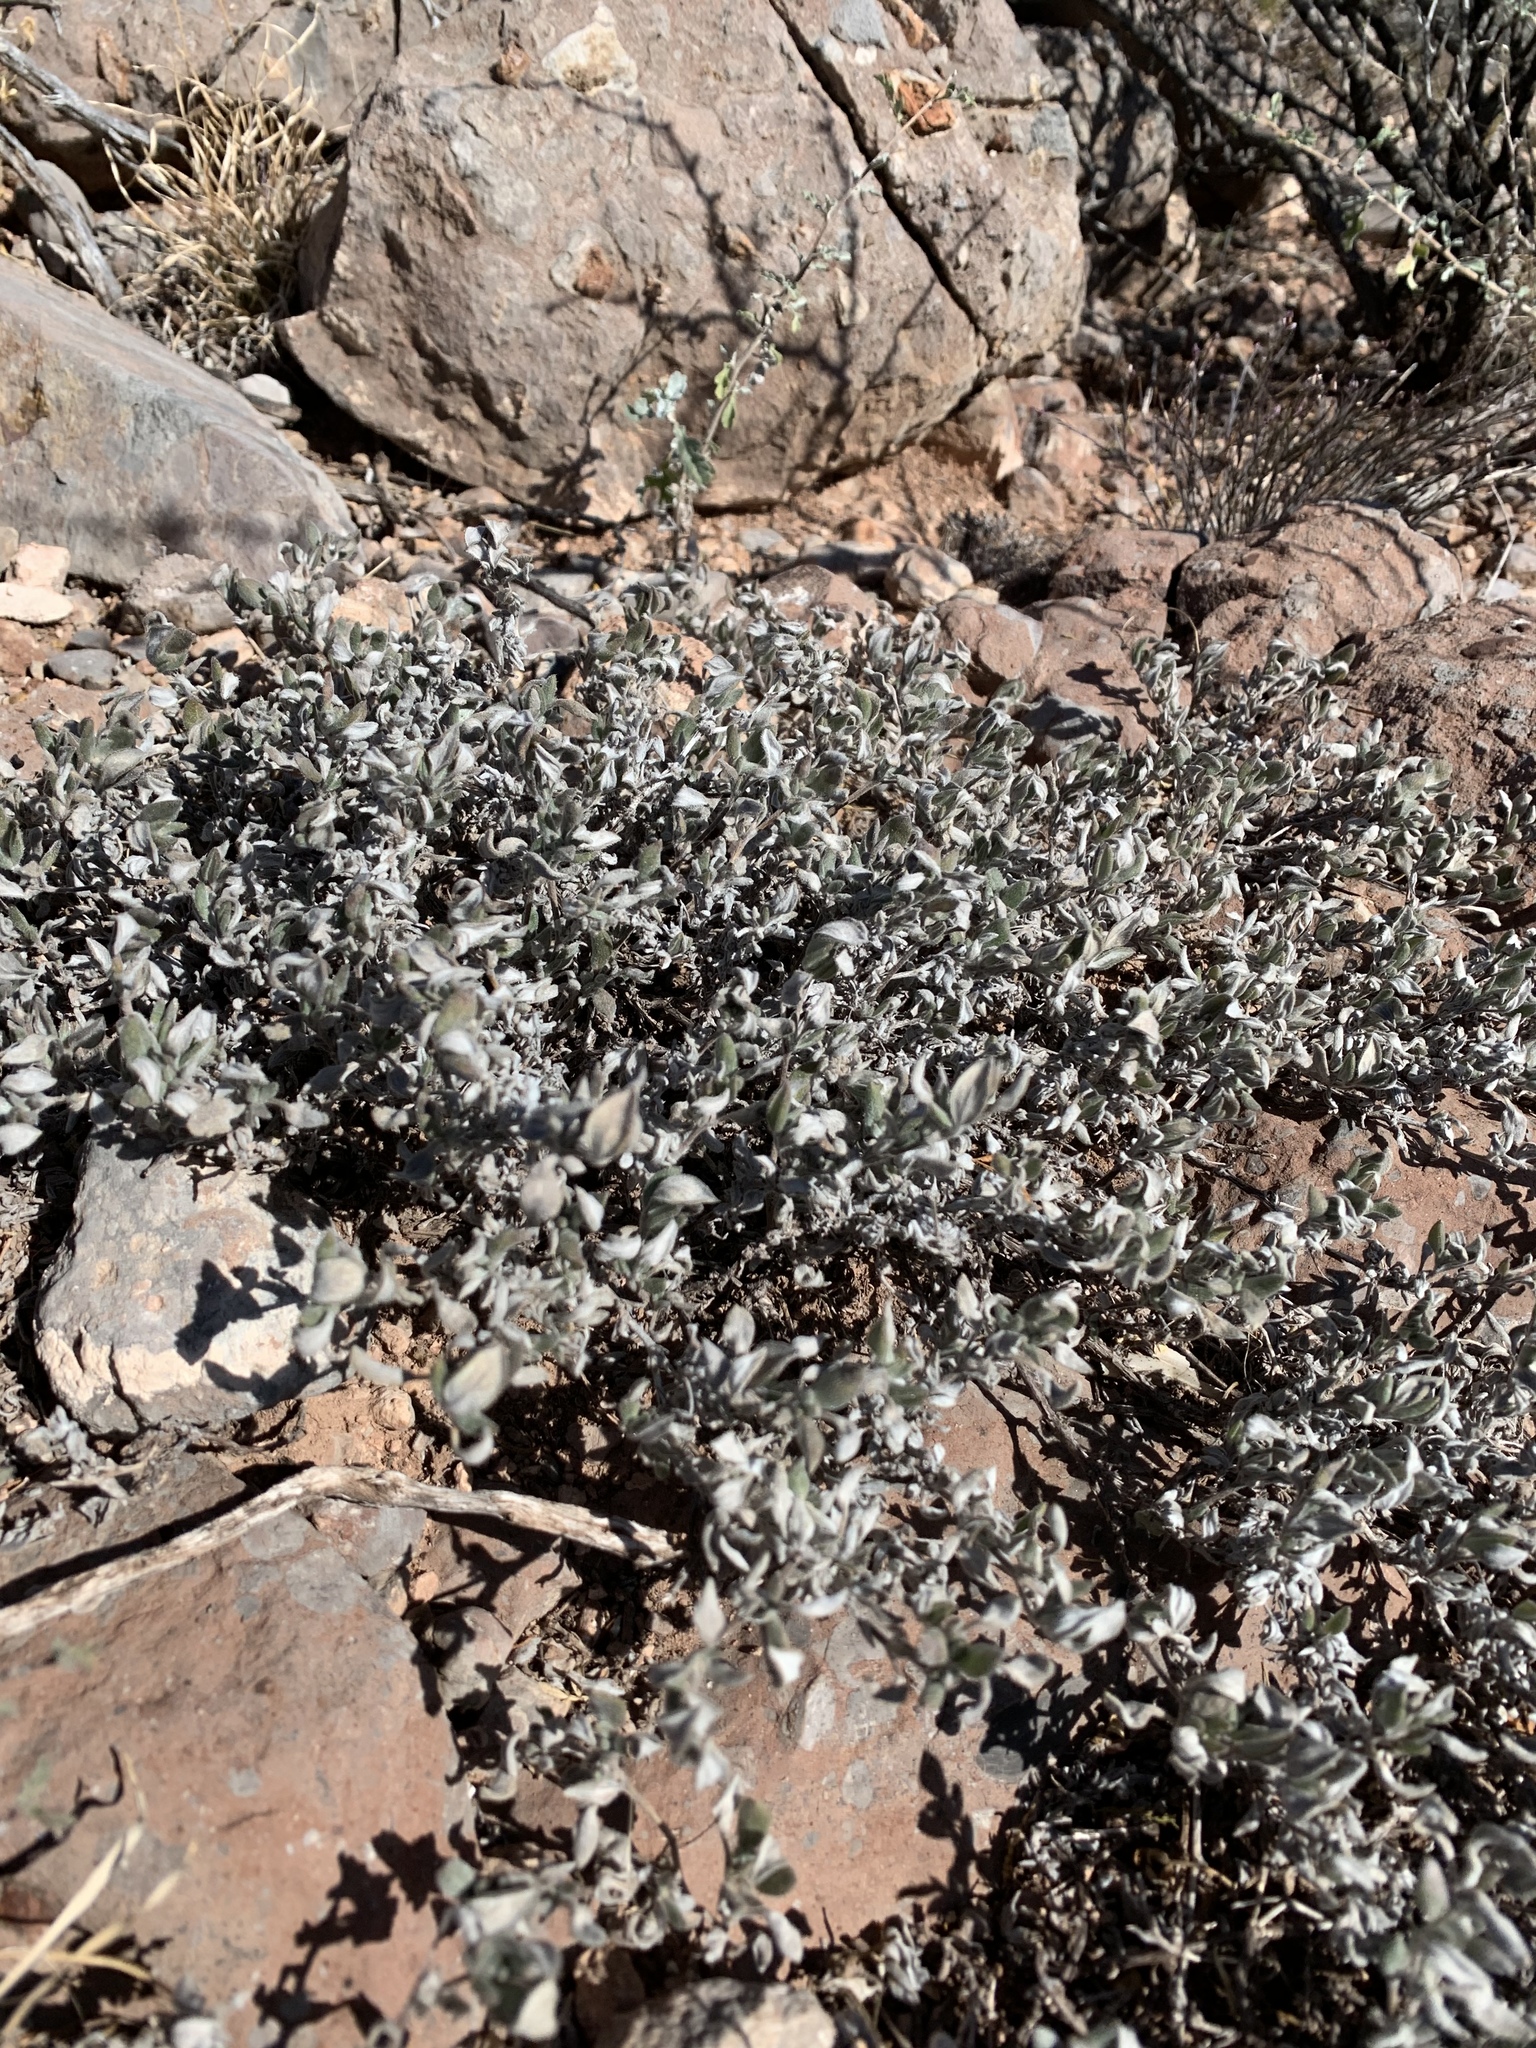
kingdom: Plantae
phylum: Tracheophyta
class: Magnoliopsida
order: Boraginales
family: Ehretiaceae
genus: Tiquilia
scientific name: Tiquilia canescens
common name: Hairy tiquilia
